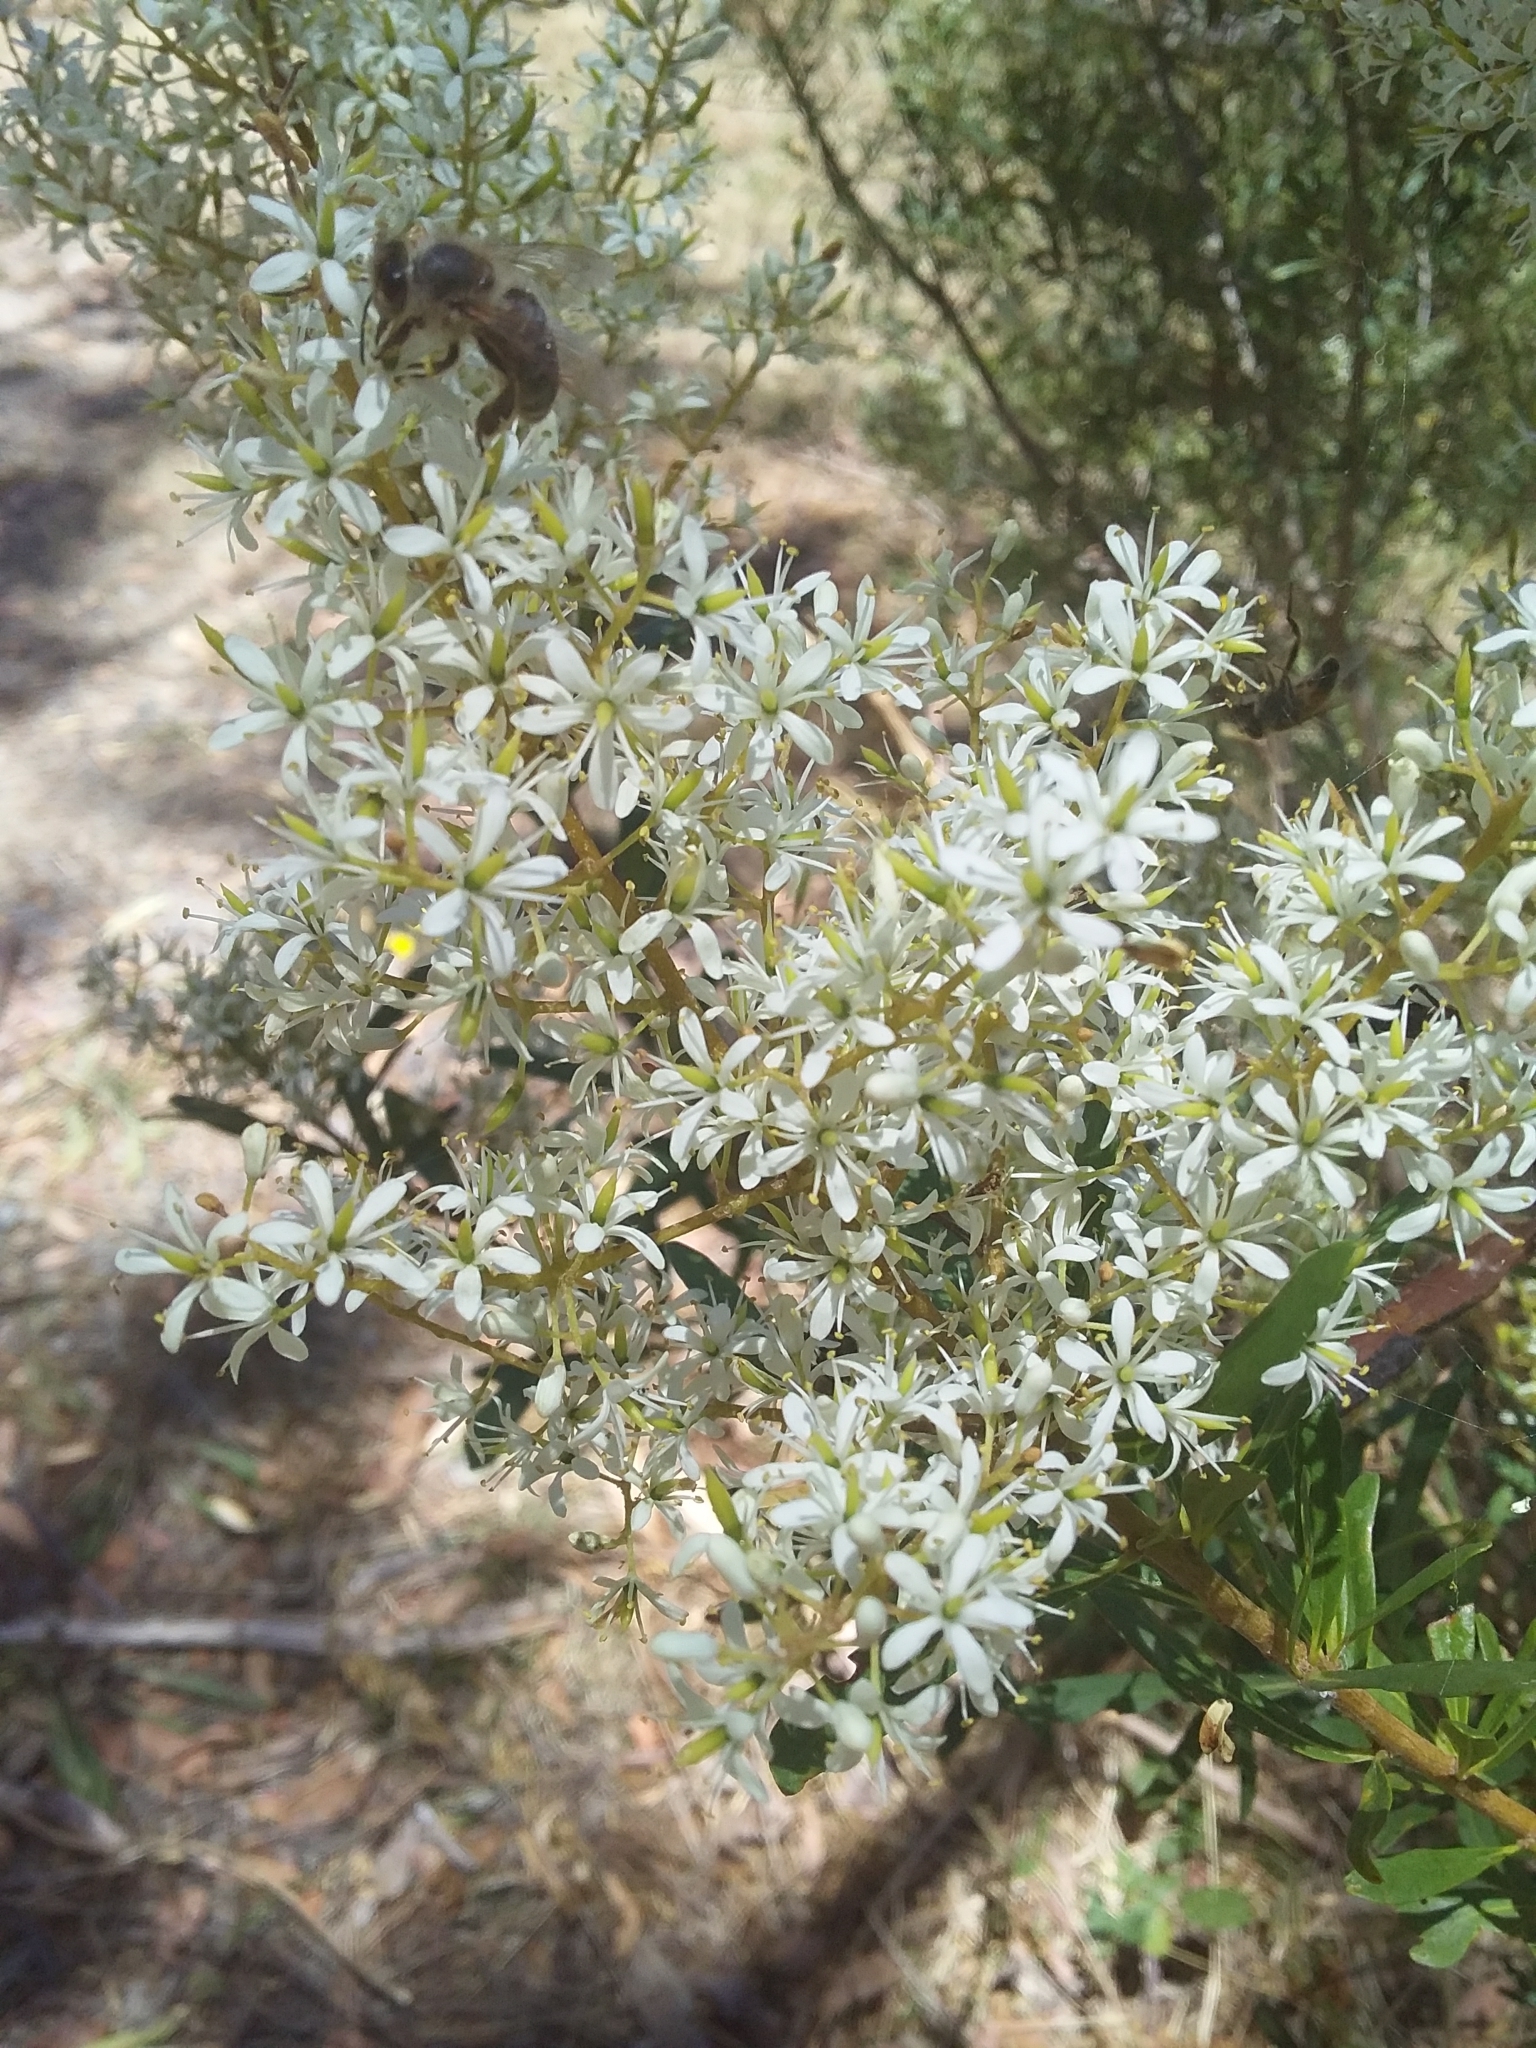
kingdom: Plantae
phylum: Tracheophyta
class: Magnoliopsida
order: Apiales
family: Pittosporaceae
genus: Bursaria
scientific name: Bursaria spinosa
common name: Australian blackthorn
